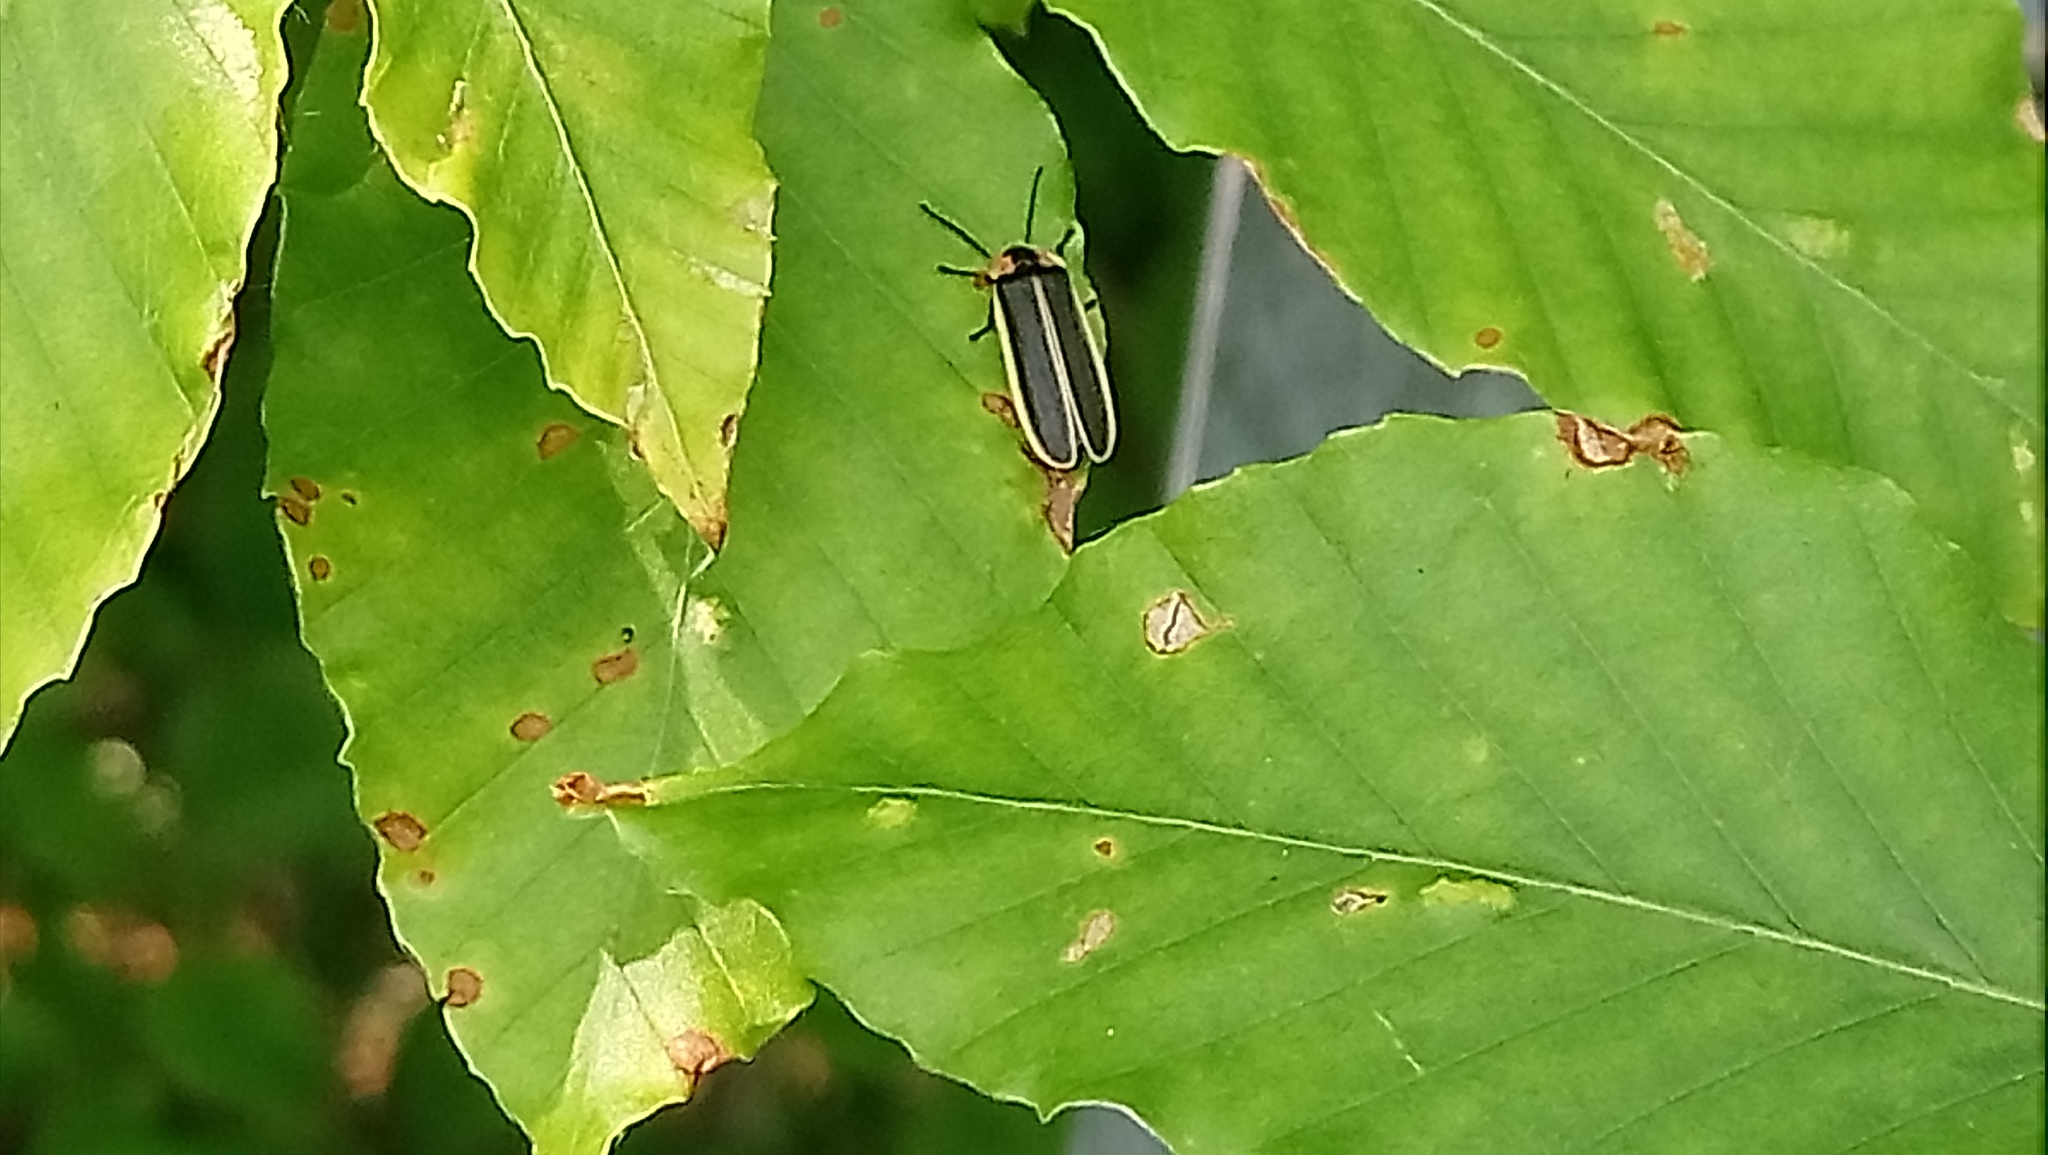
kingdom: Animalia
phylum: Arthropoda
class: Insecta
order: Coleoptera
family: Lampyridae
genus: Photinus
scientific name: Photinus pyralis
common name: Big dipper firefly
